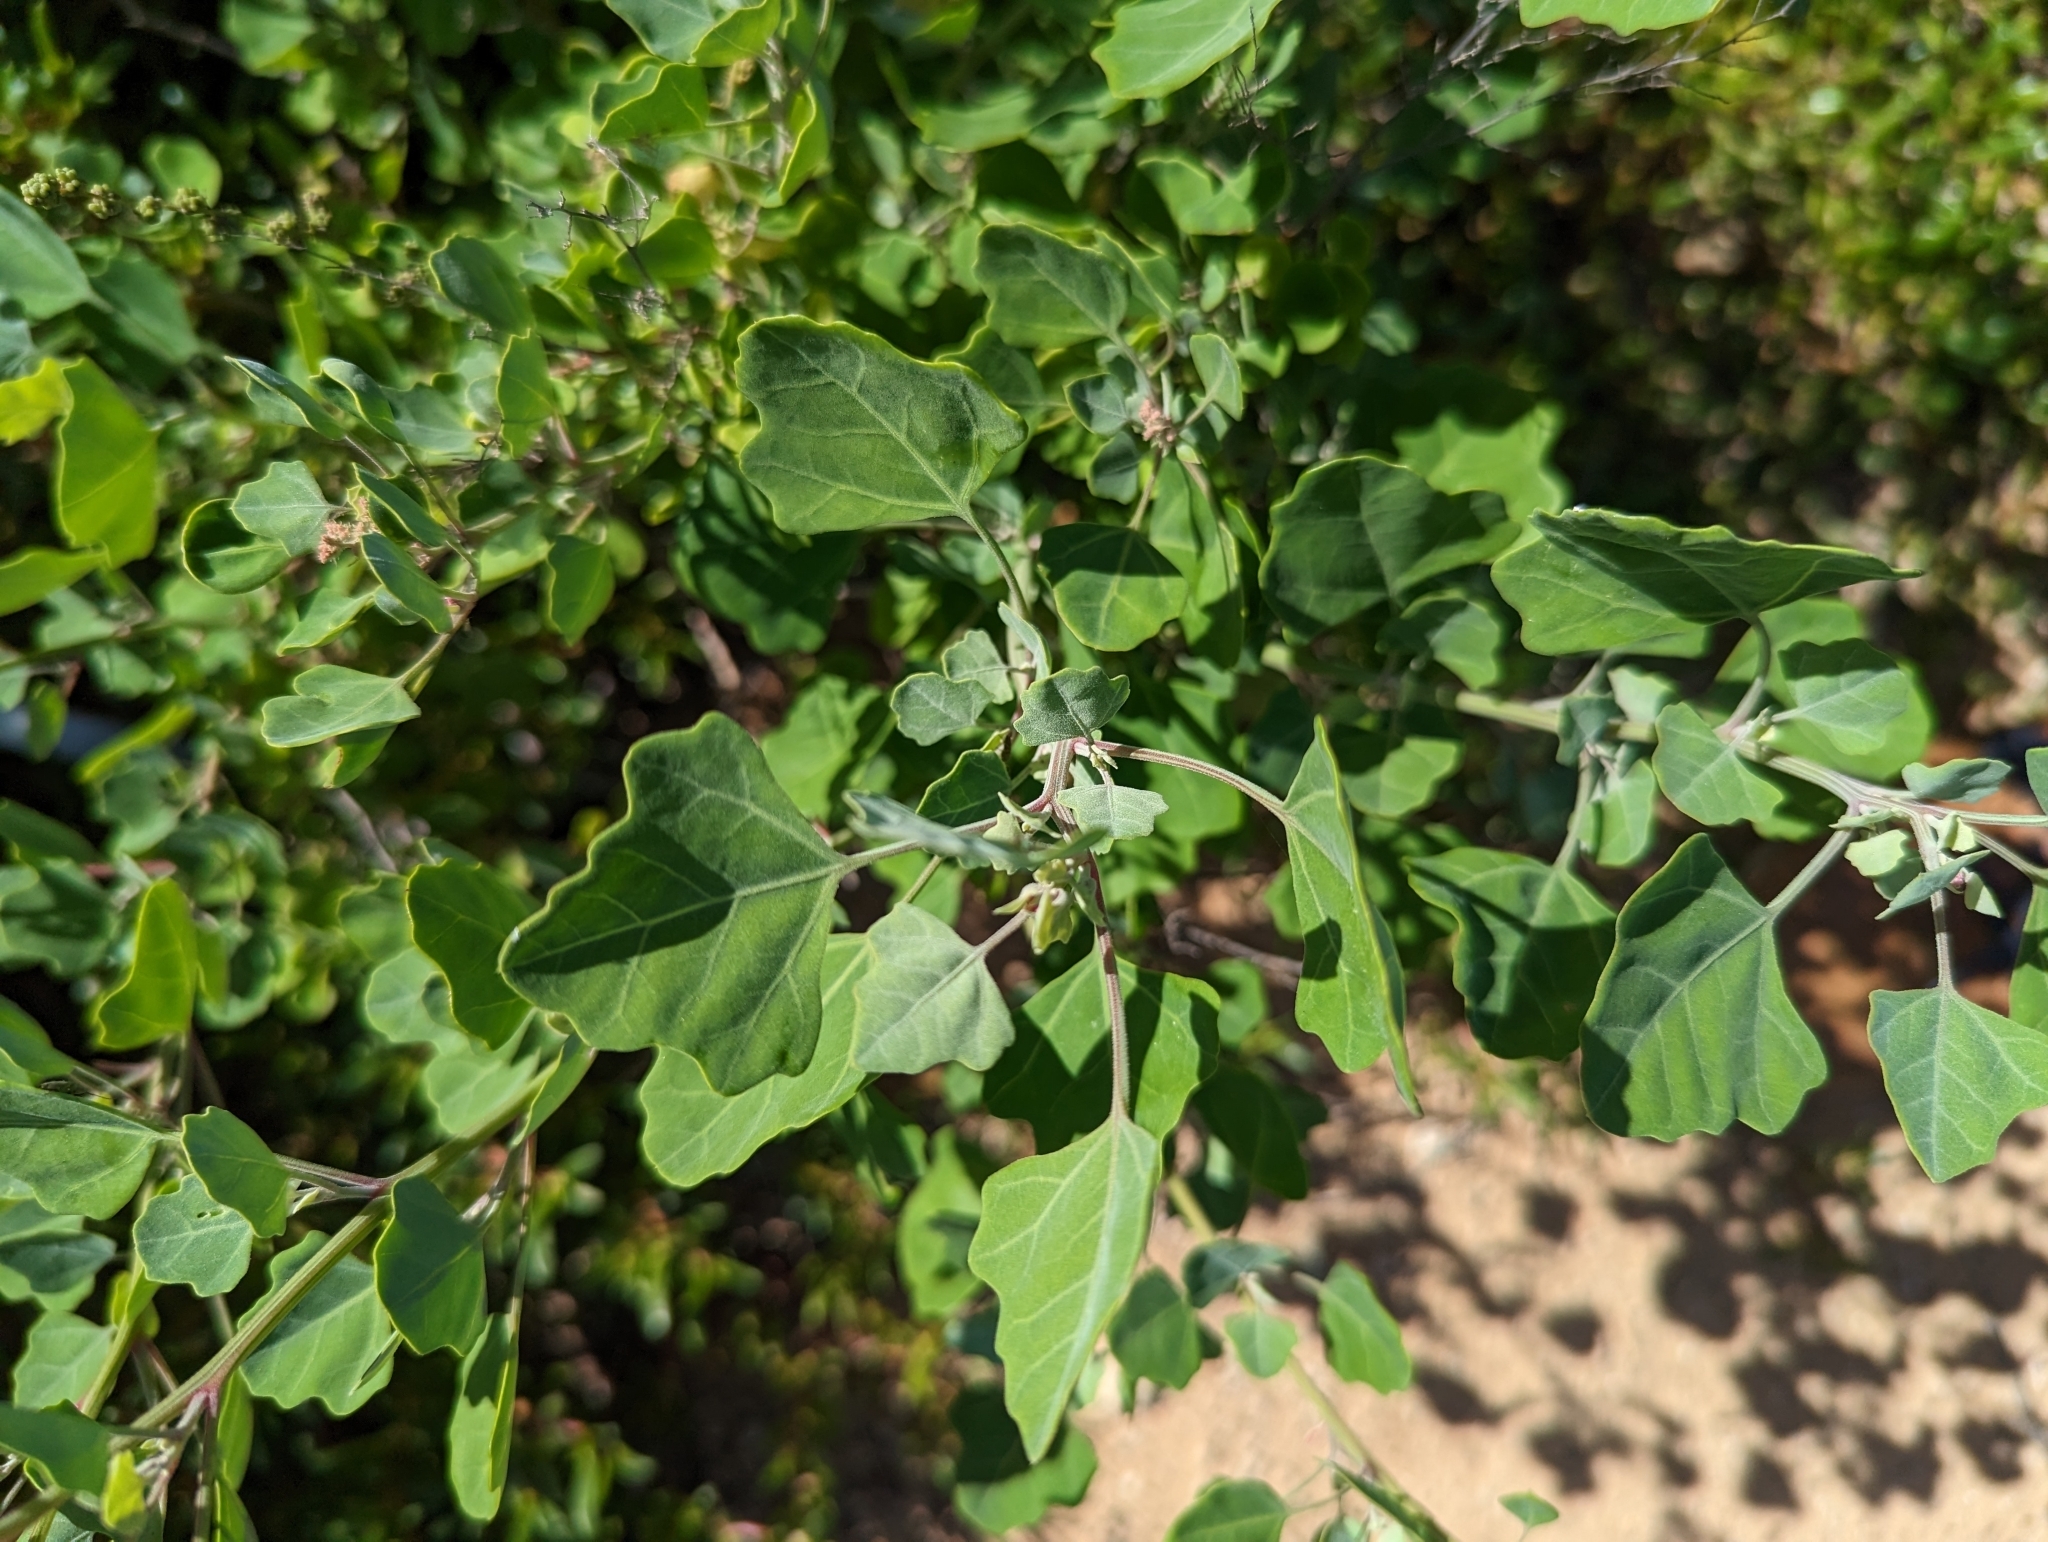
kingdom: Plantae
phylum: Tracheophyta
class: Magnoliopsida
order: Caryophyllales
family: Amaranthaceae
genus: Chenopodium
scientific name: Chenopodium oahuense
